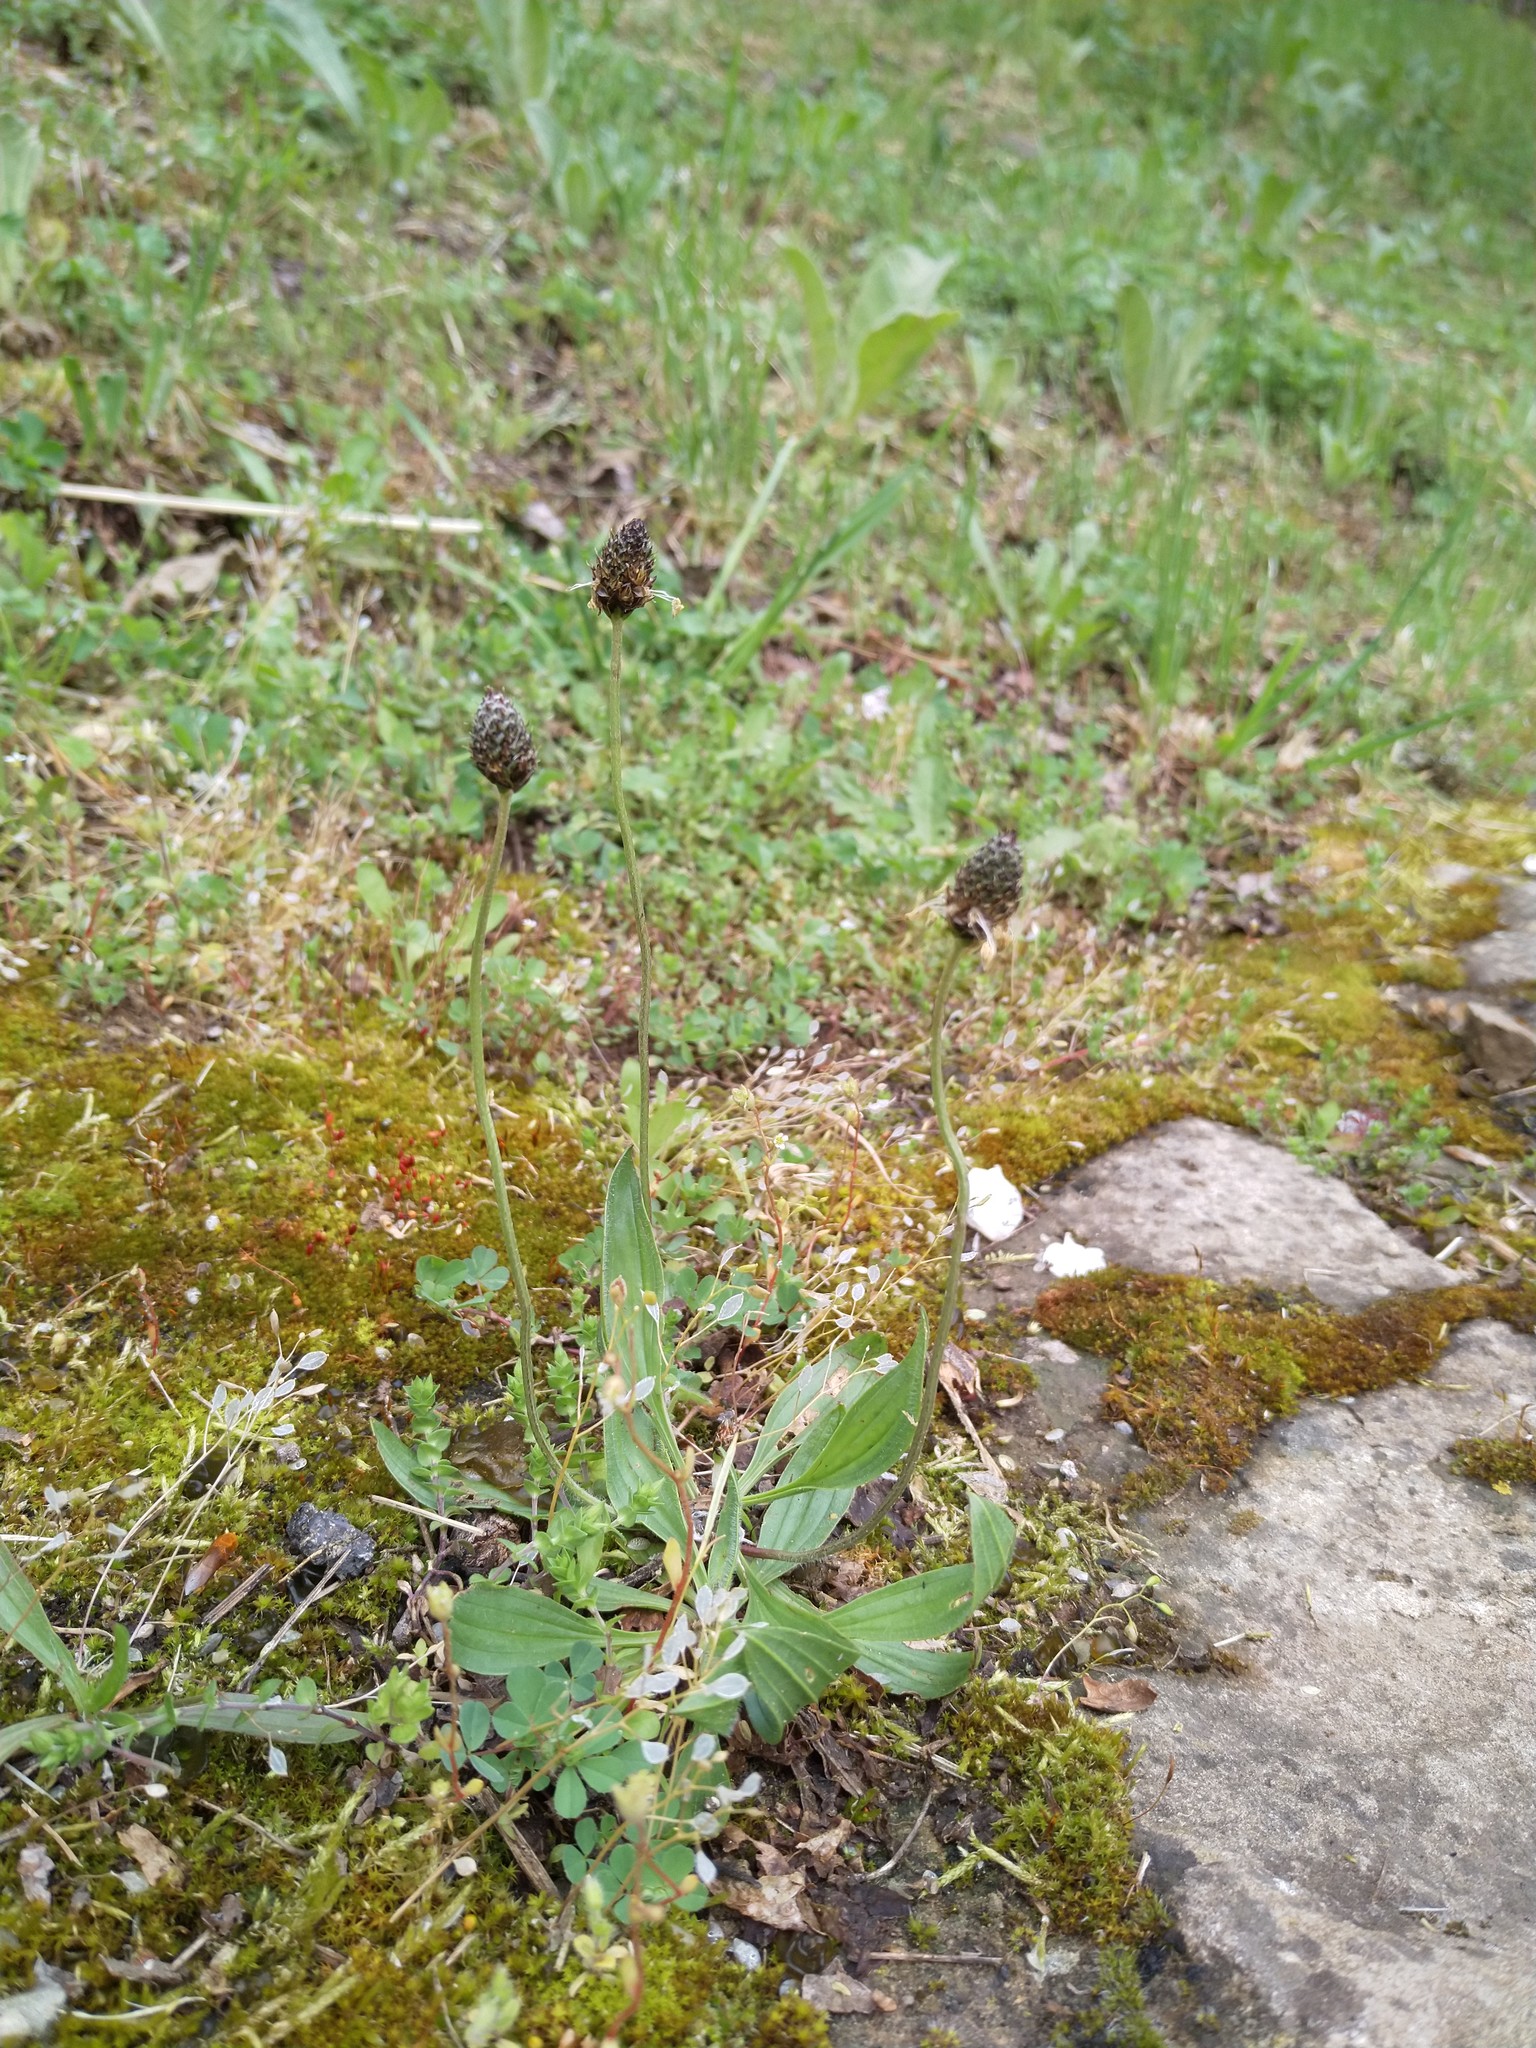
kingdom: Plantae
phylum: Tracheophyta
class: Magnoliopsida
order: Lamiales
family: Plantaginaceae
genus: Plantago
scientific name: Plantago lanceolata
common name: Ribwort plantain
